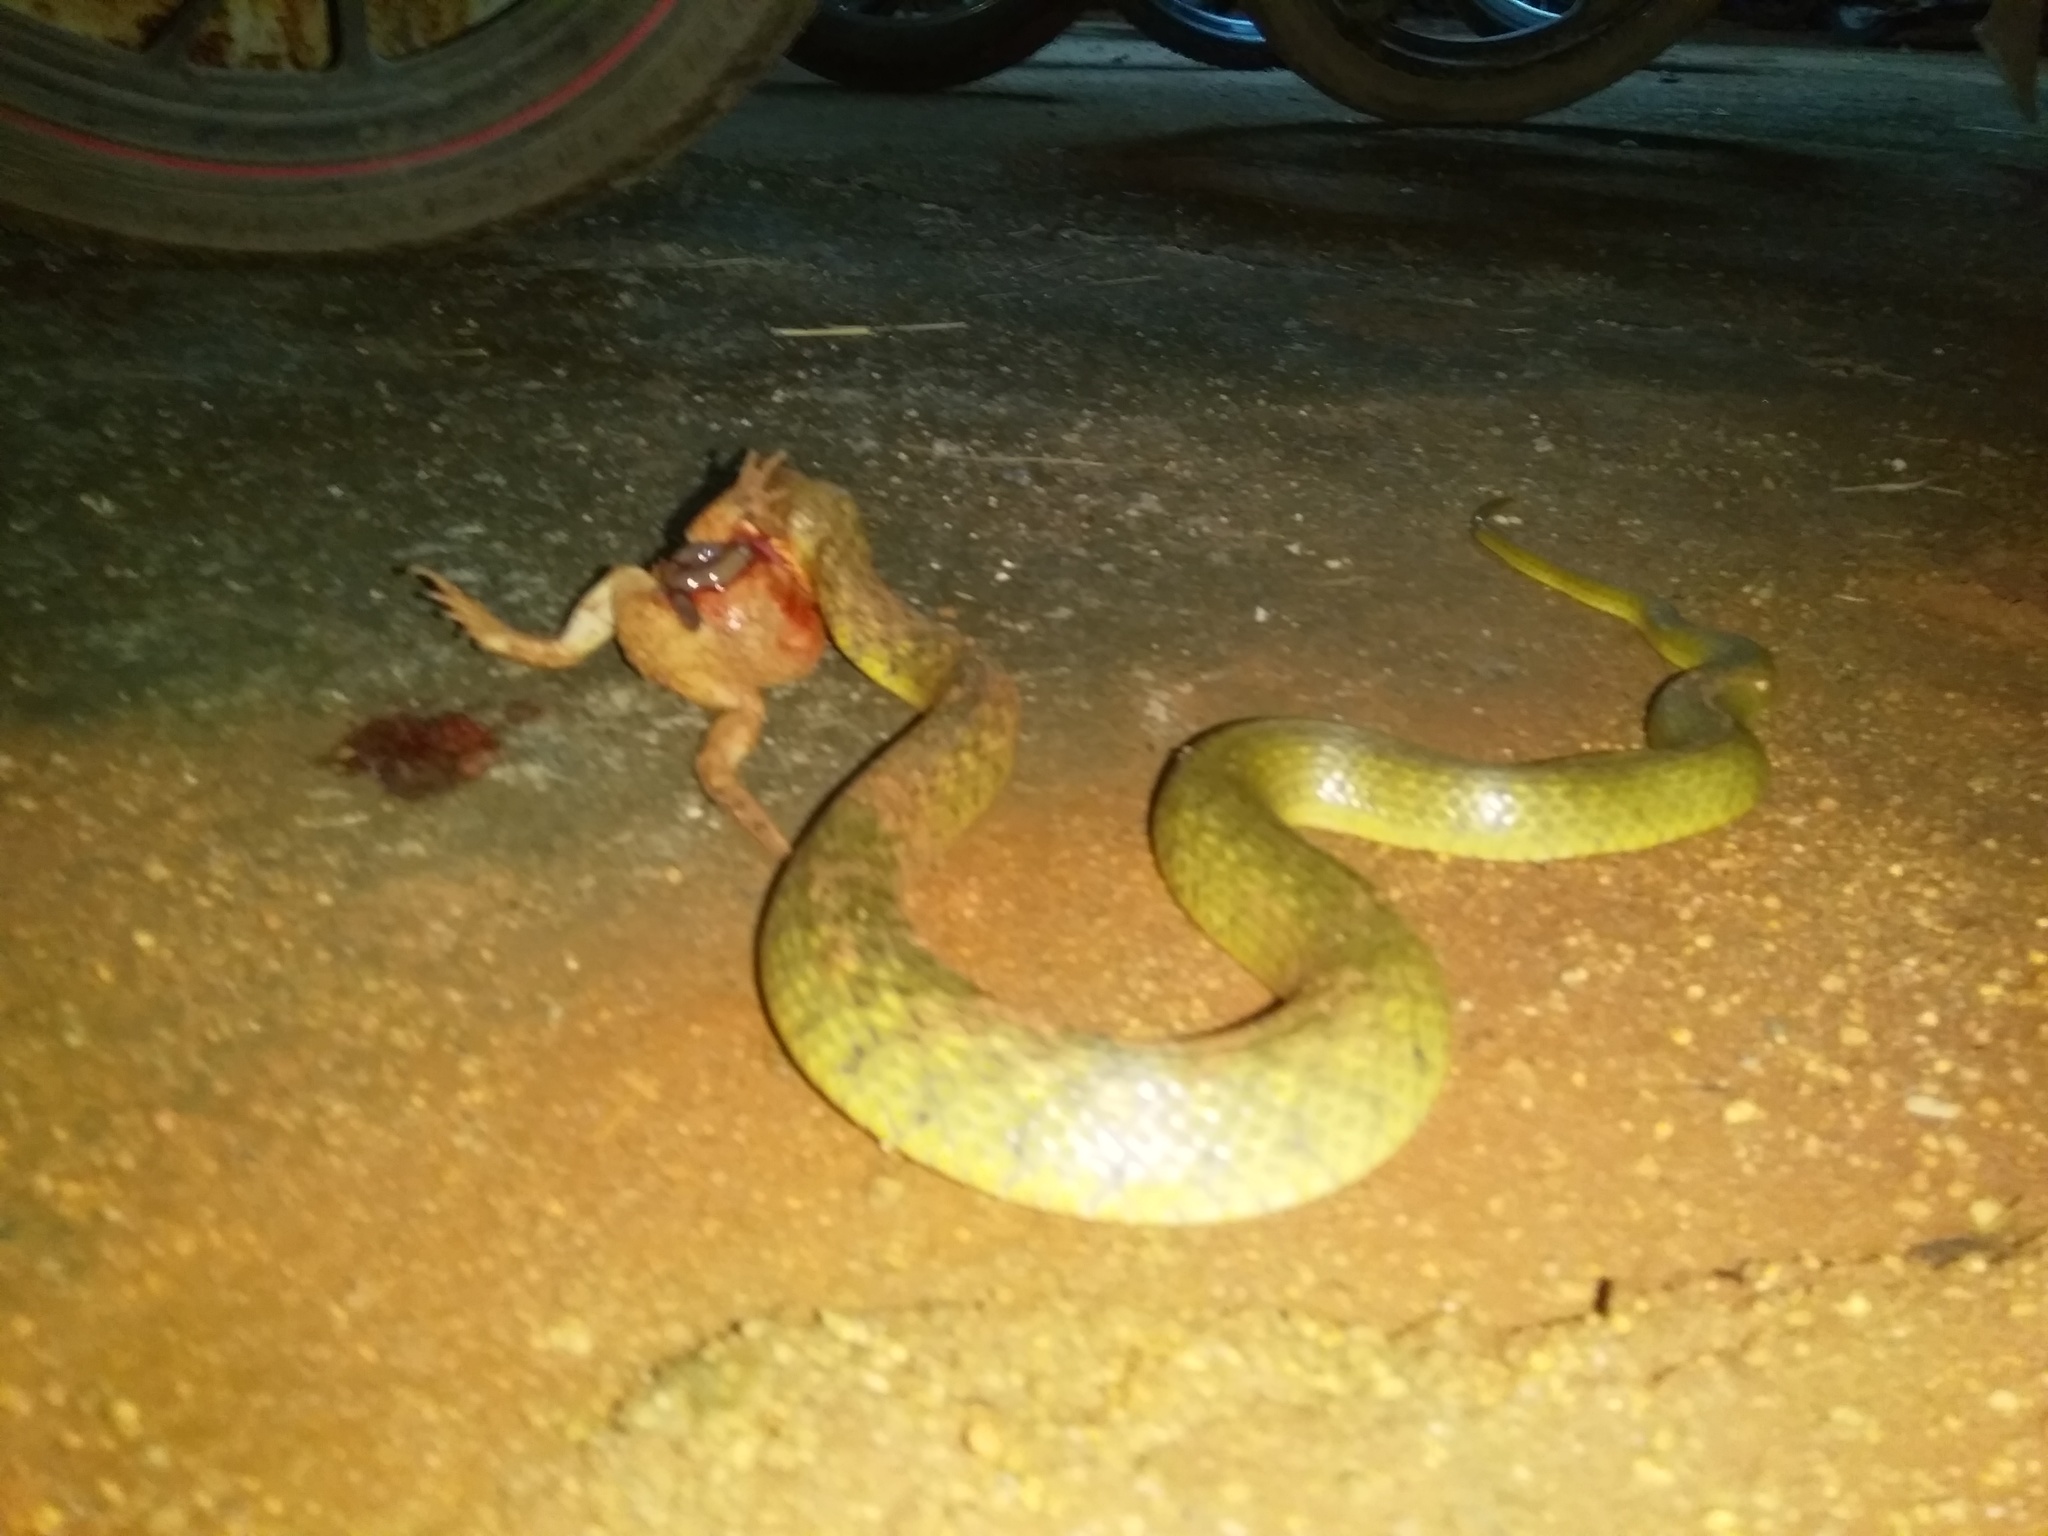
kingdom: Animalia
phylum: Chordata
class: Squamata
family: Colubridae
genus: Fowlea
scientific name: Fowlea piscator
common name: Asiatic water snake
